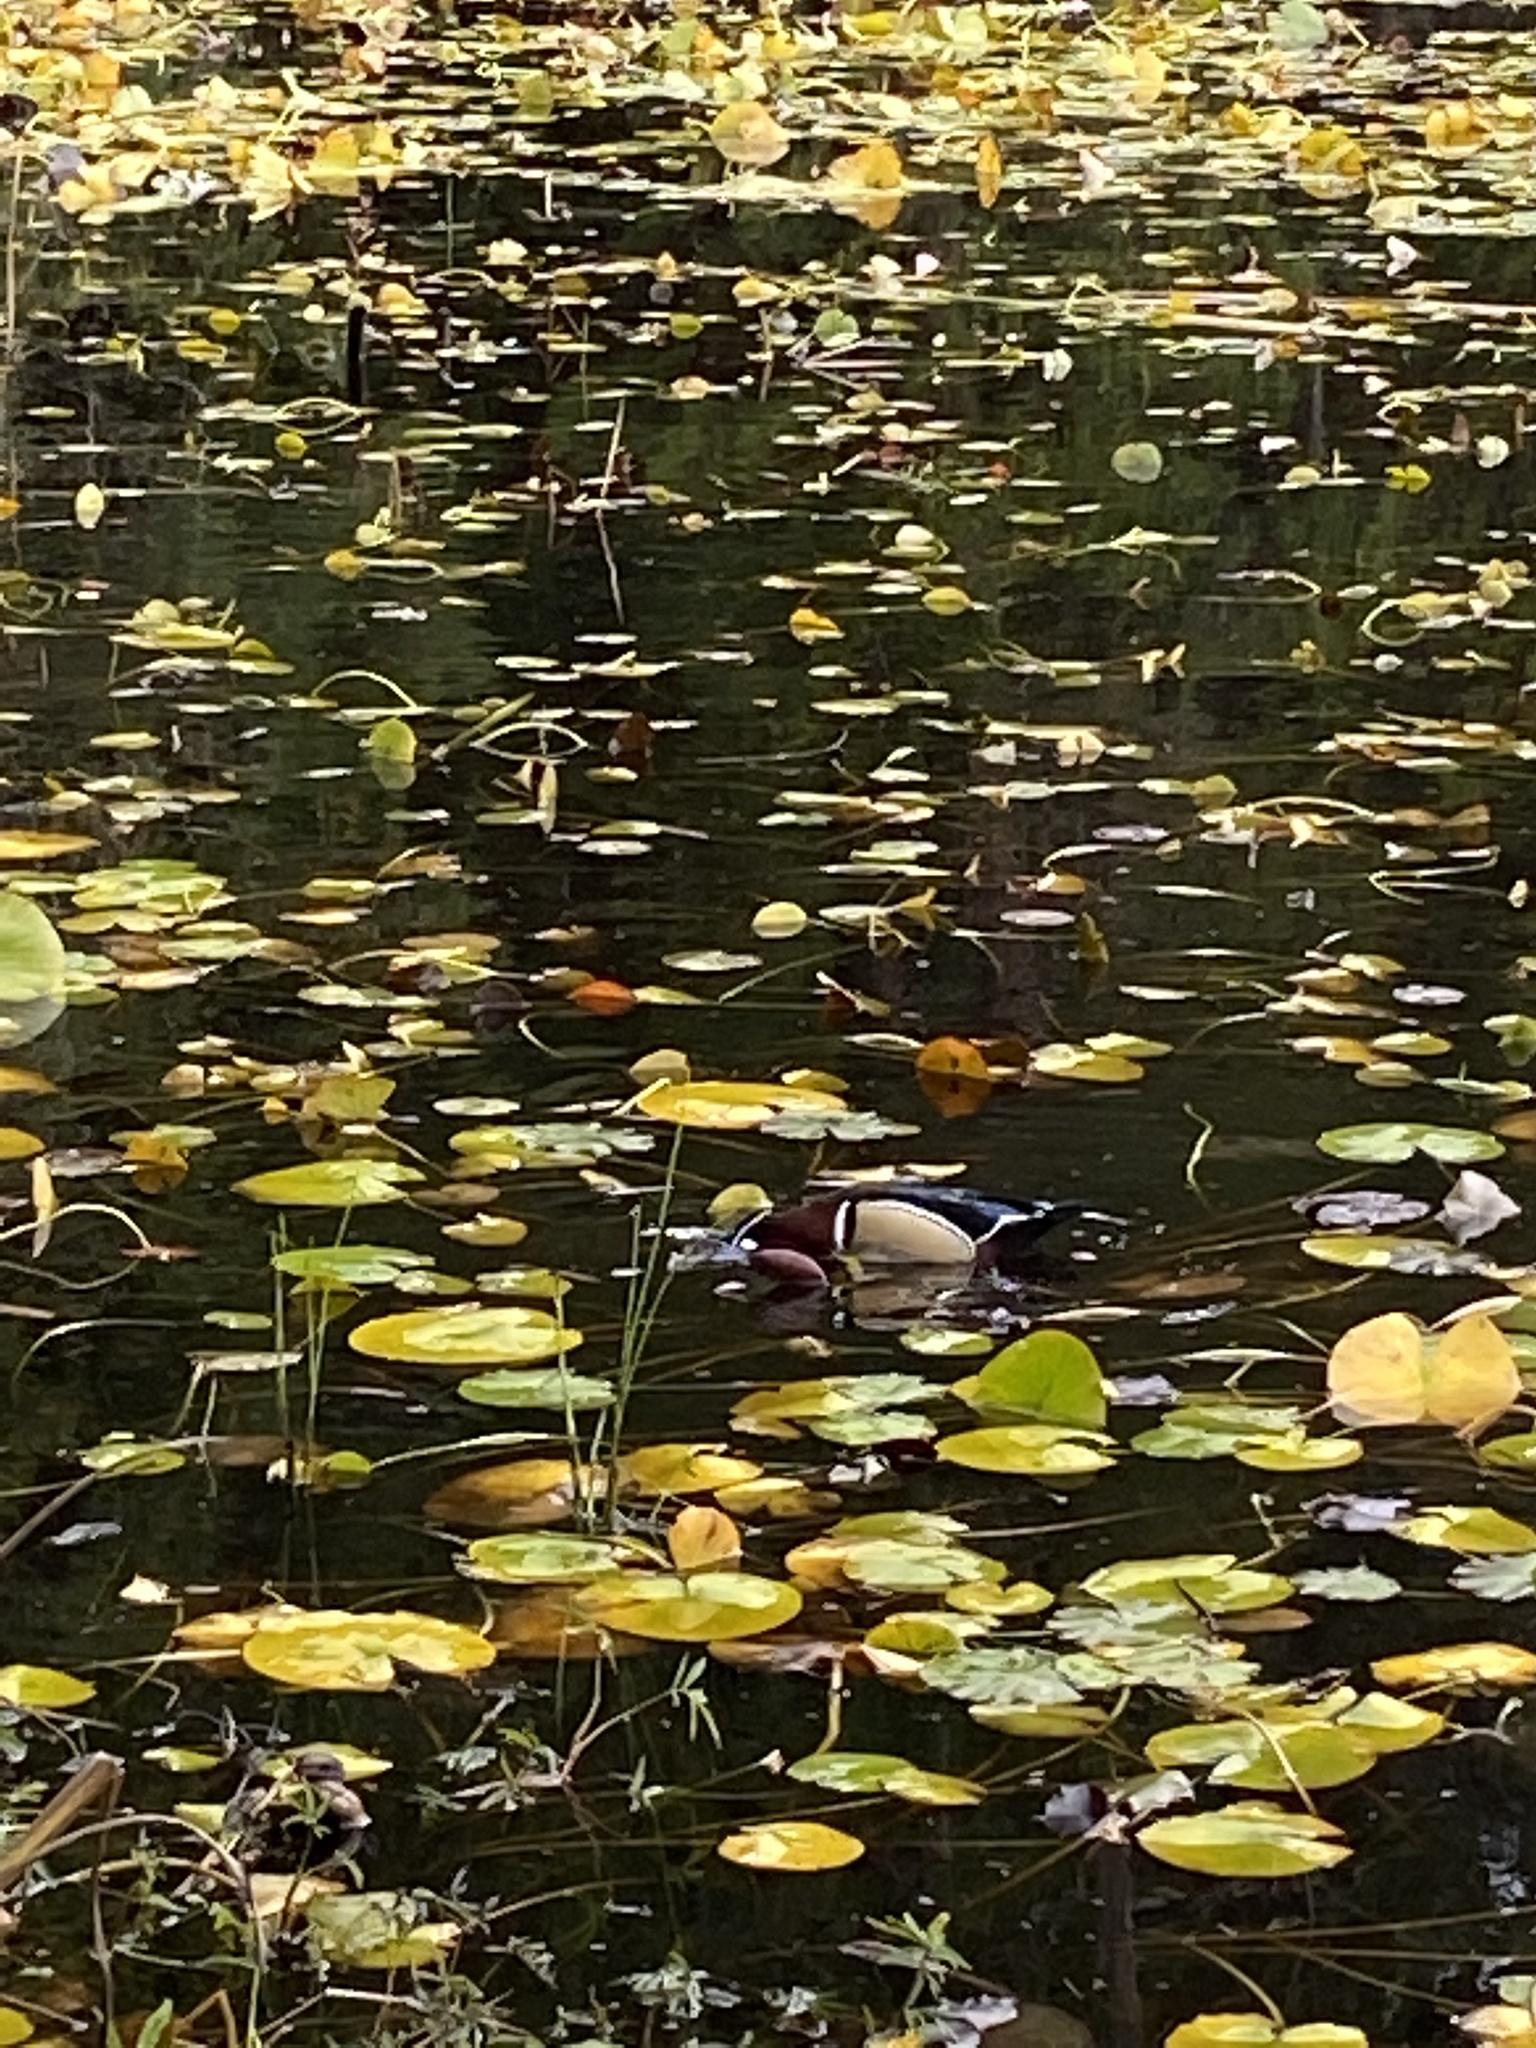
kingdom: Animalia
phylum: Chordata
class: Aves
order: Anseriformes
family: Anatidae
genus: Aix
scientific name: Aix sponsa
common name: Wood duck
